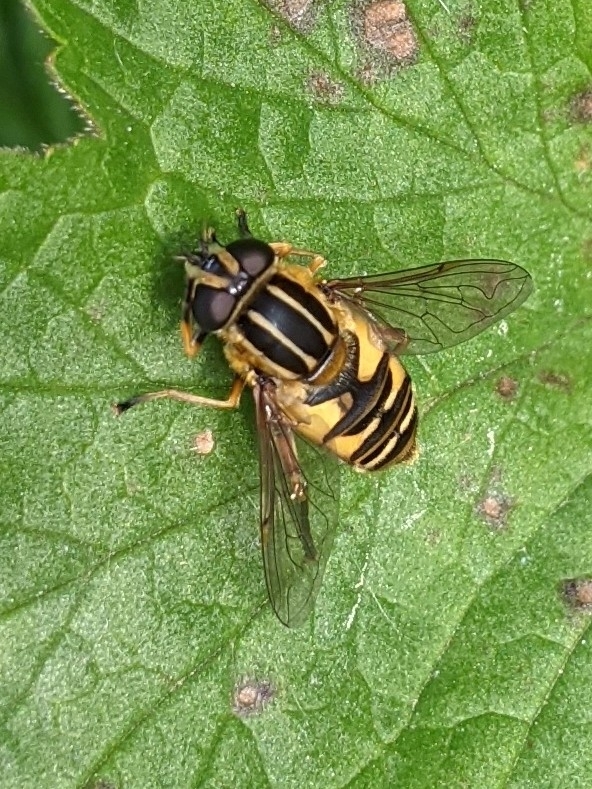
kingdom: Animalia
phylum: Arthropoda
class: Insecta
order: Diptera
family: Syrphidae
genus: Helophilus
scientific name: Helophilus pendulus
